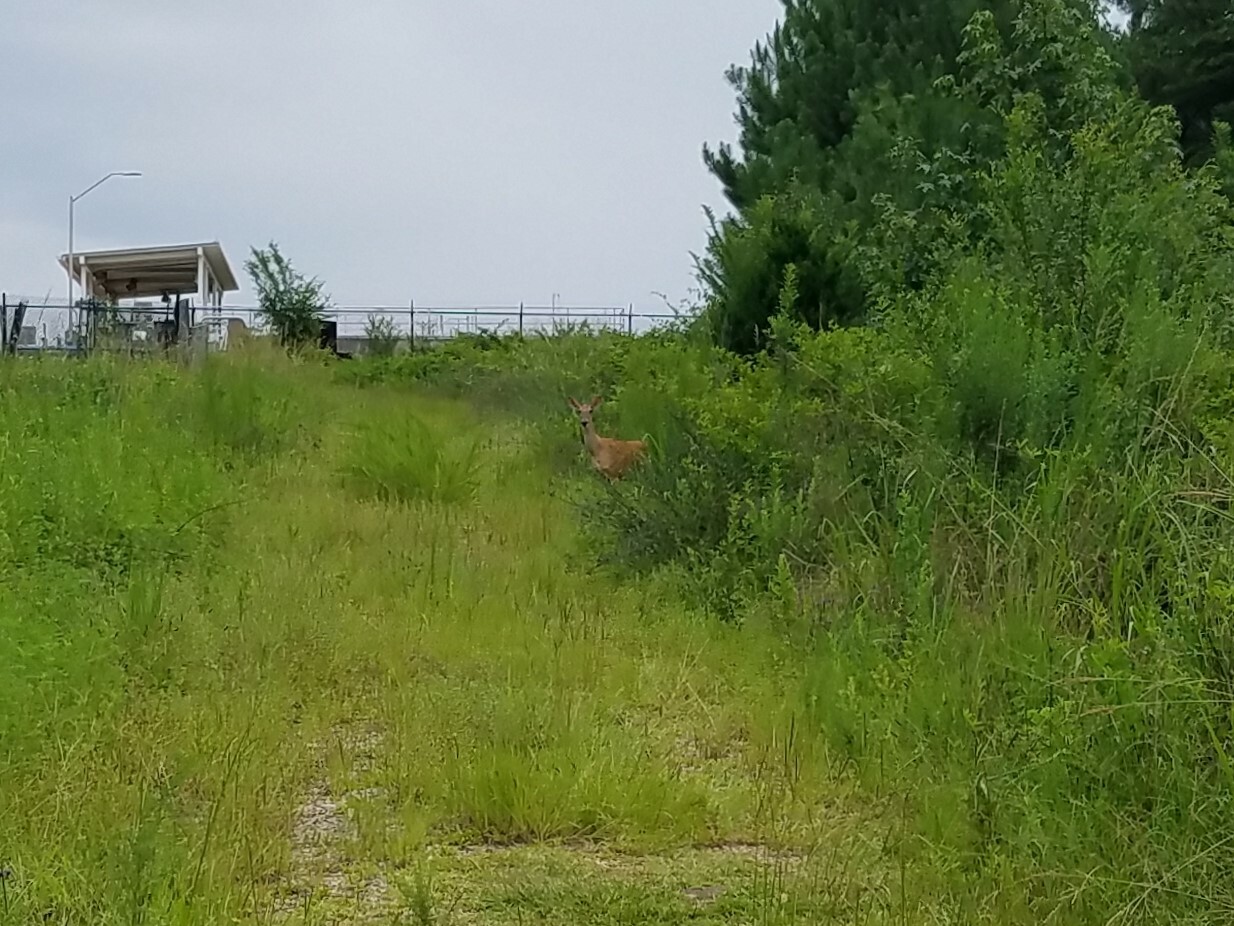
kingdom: Animalia
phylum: Chordata
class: Mammalia
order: Artiodactyla
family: Cervidae
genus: Odocoileus
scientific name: Odocoileus virginianus
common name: White-tailed deer
